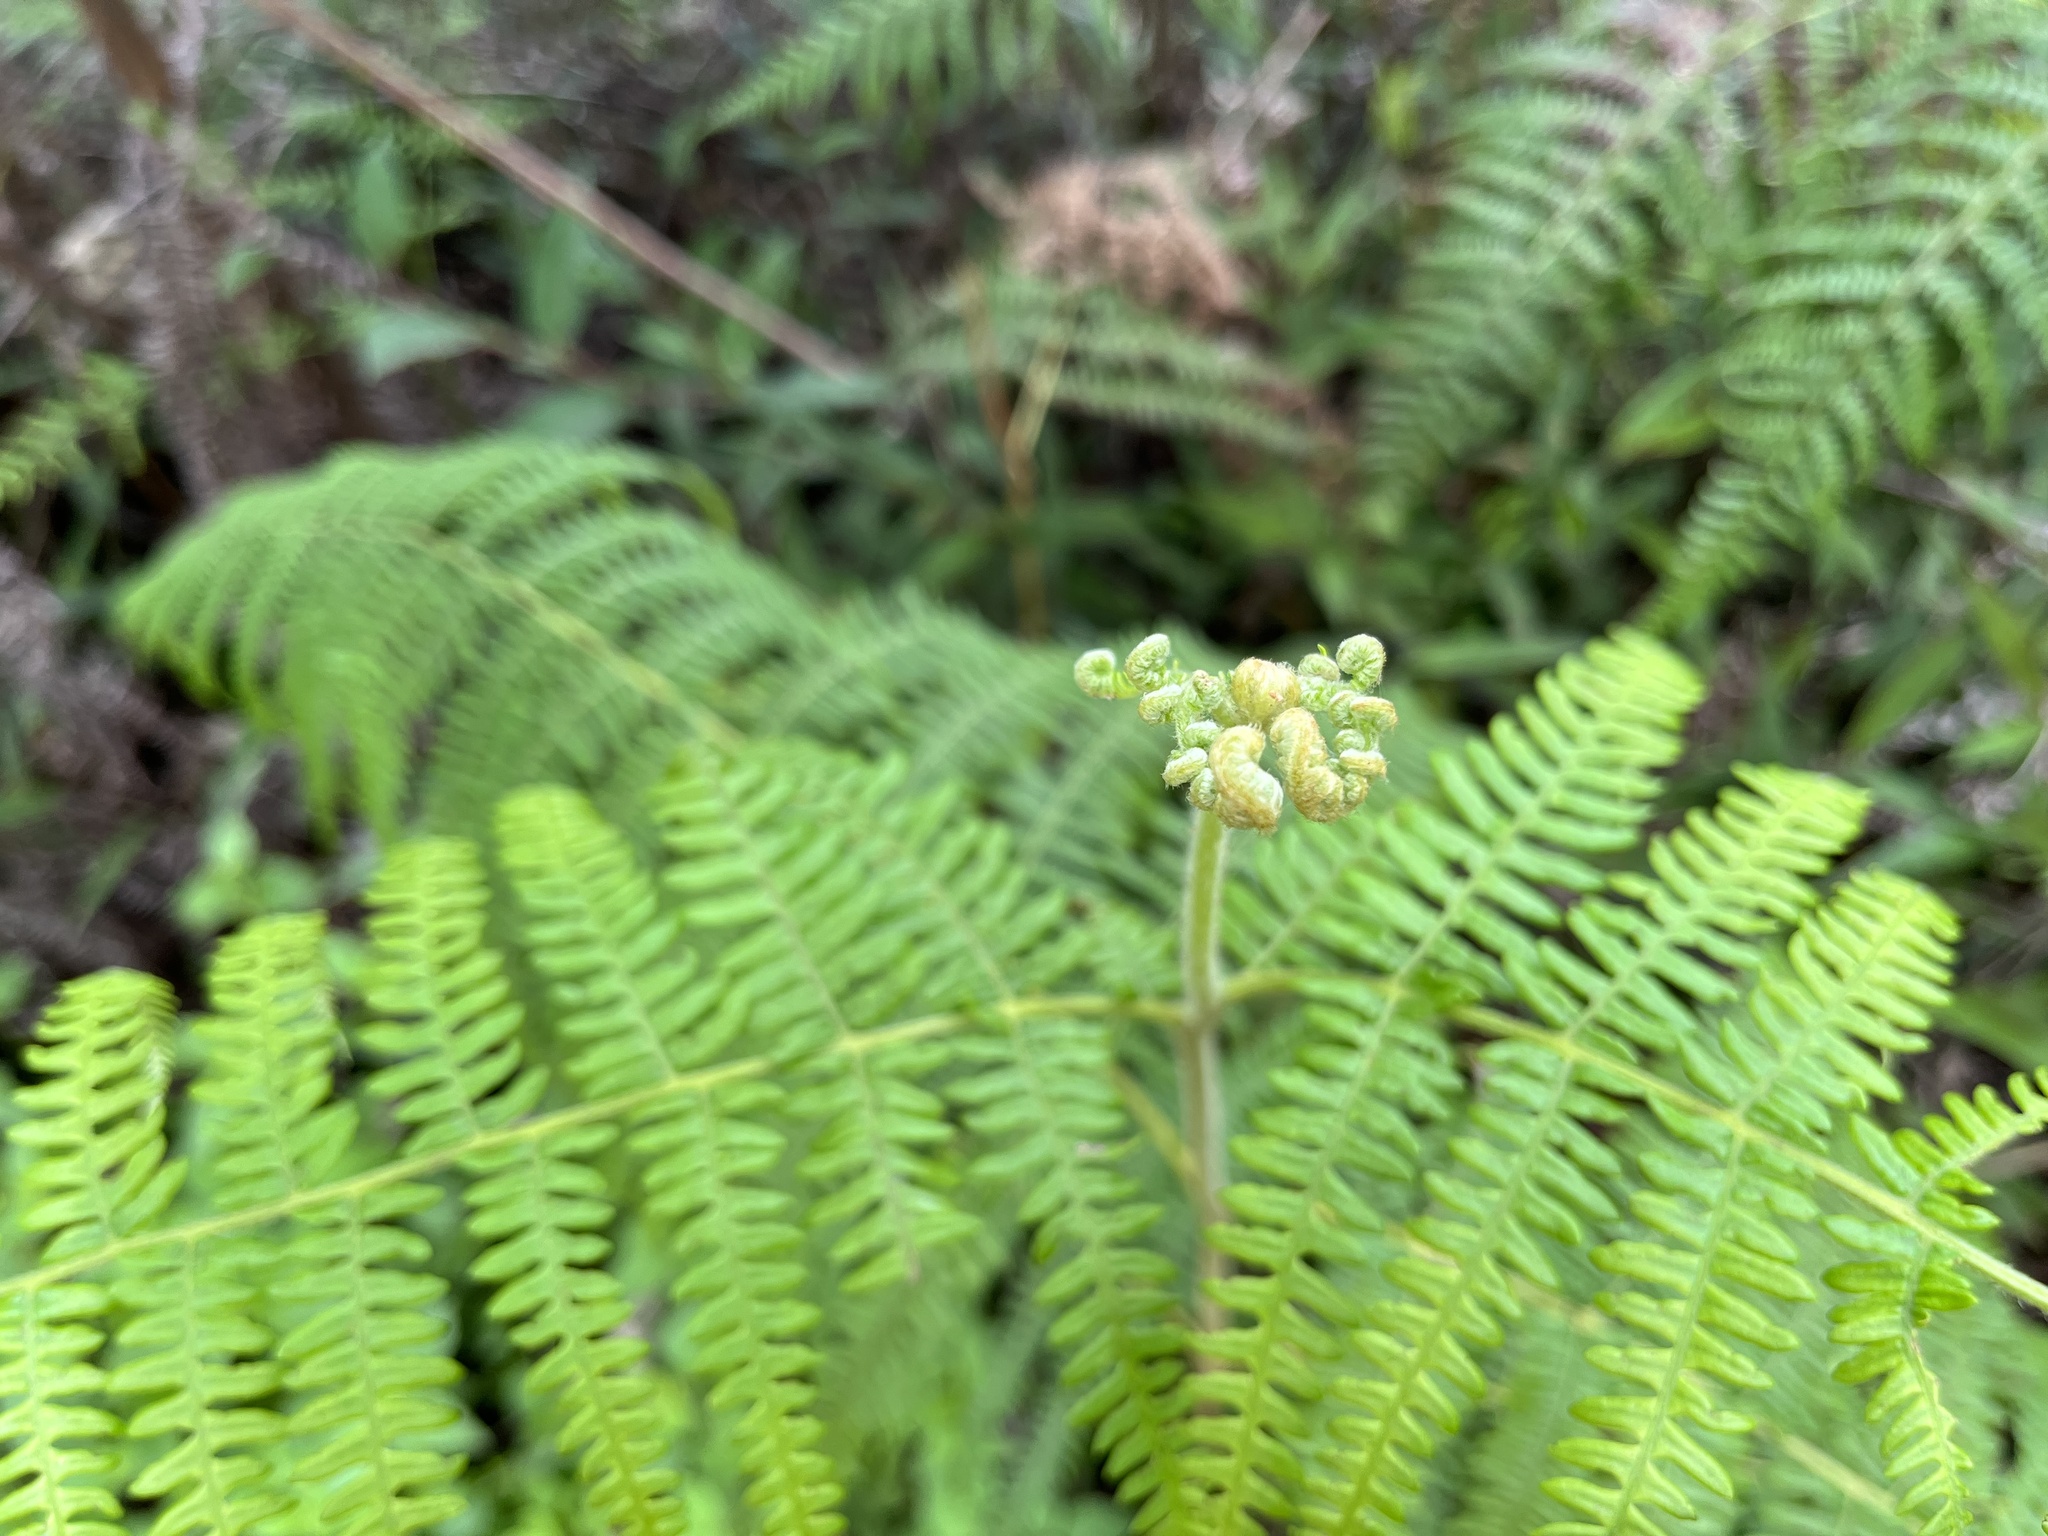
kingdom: Plantae
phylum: Tracheophyta
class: Polypodiopsida
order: Polypodiales
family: Dennstaedtiaceae
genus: Pteridium
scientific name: Pteridium aquilinum
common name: Bracken
